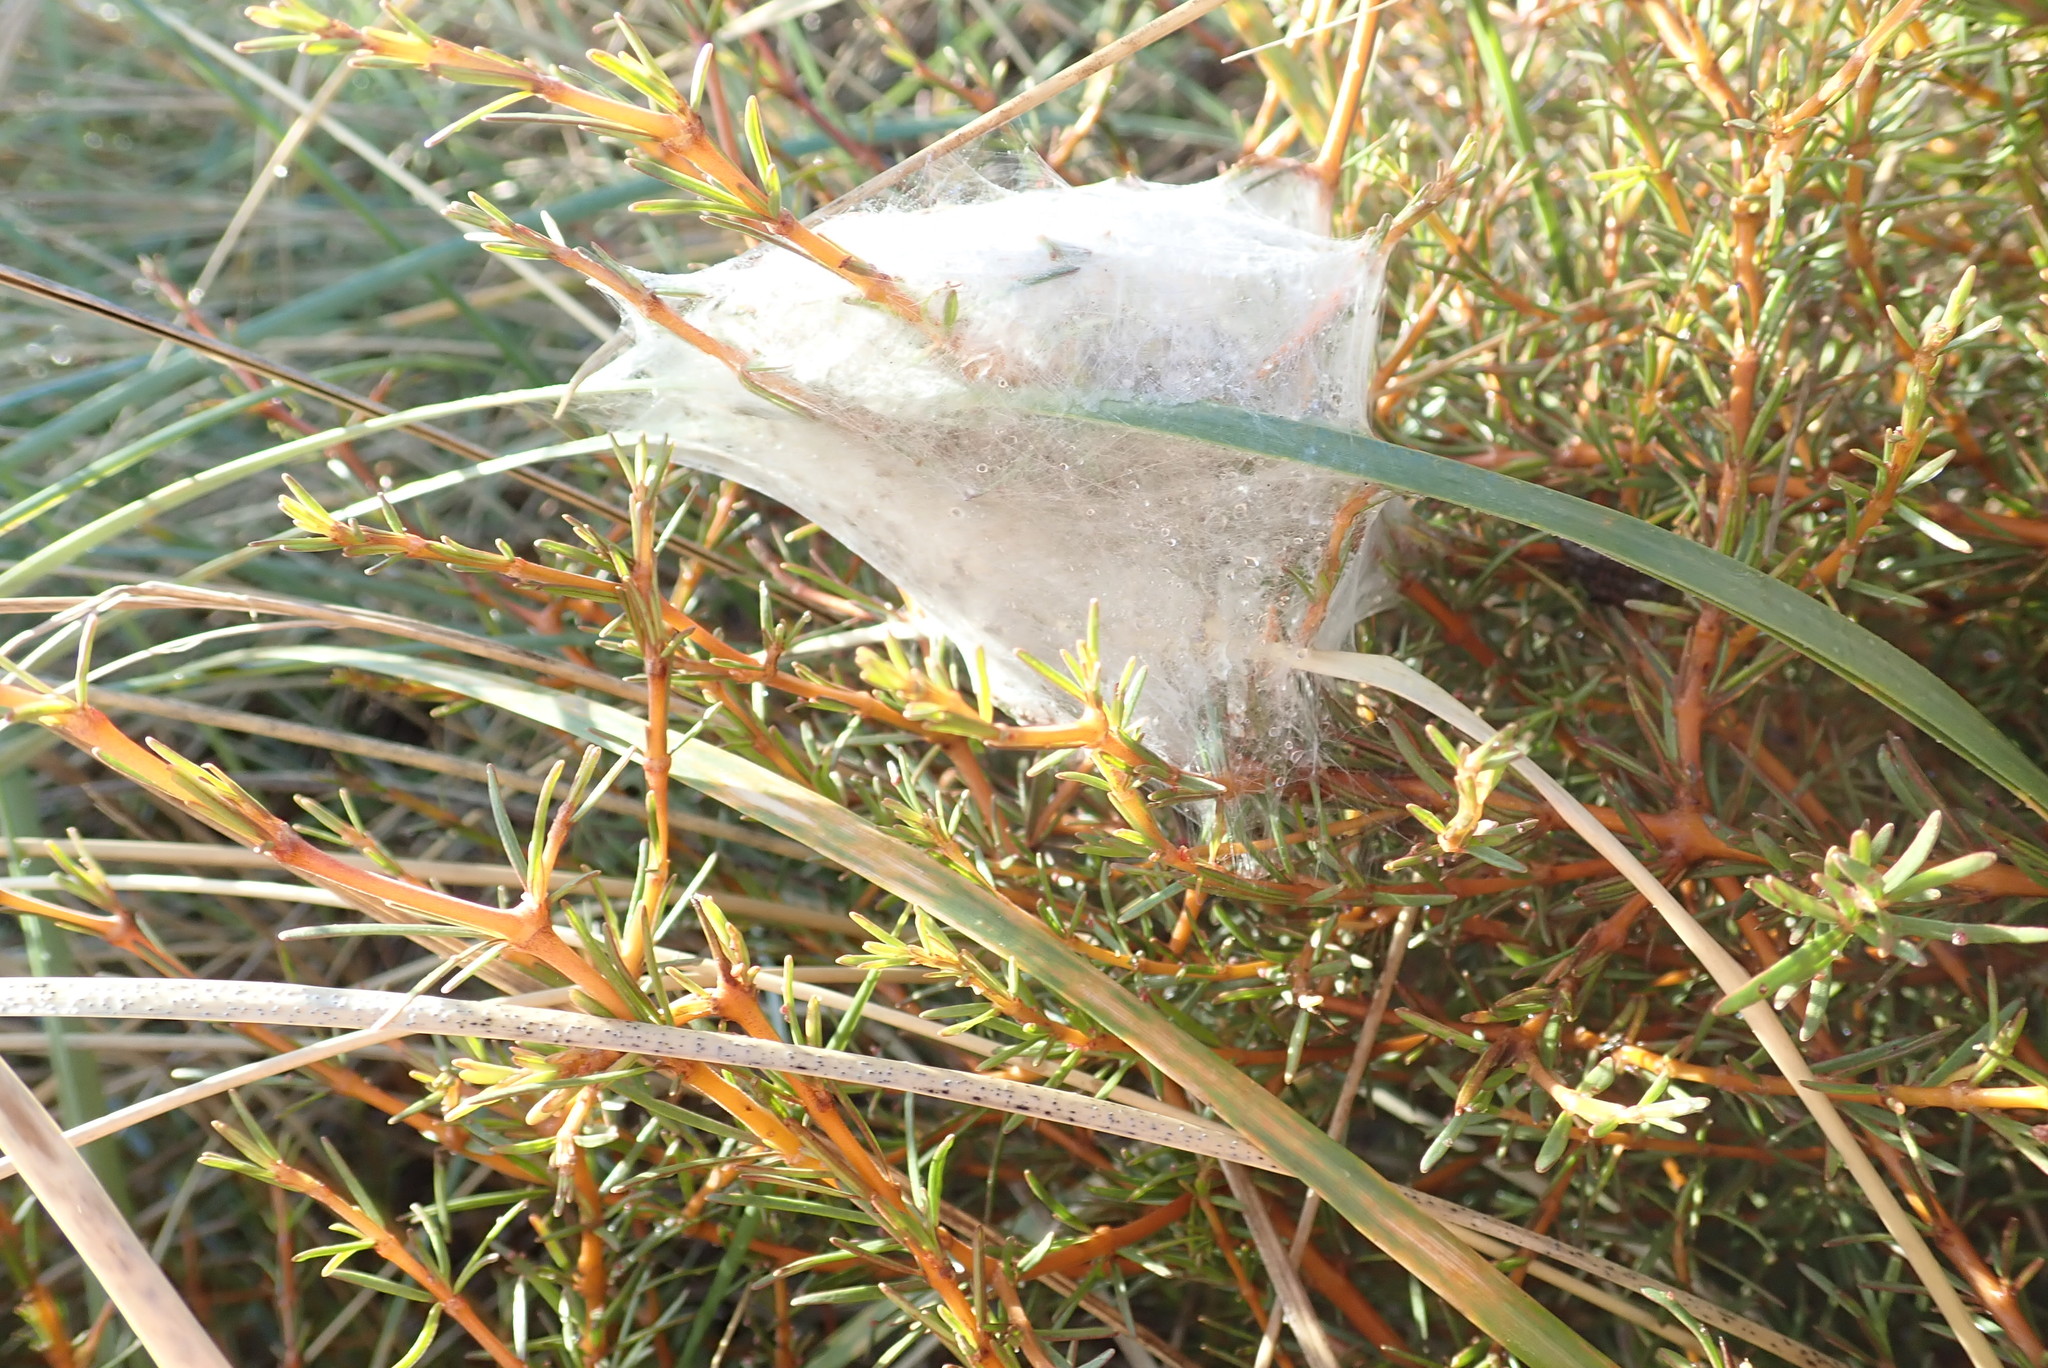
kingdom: Animalia
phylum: Arthropoda
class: Arachnida
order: Araneae
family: Pisauridae
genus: Dolomedes
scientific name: Dolomedes minor
